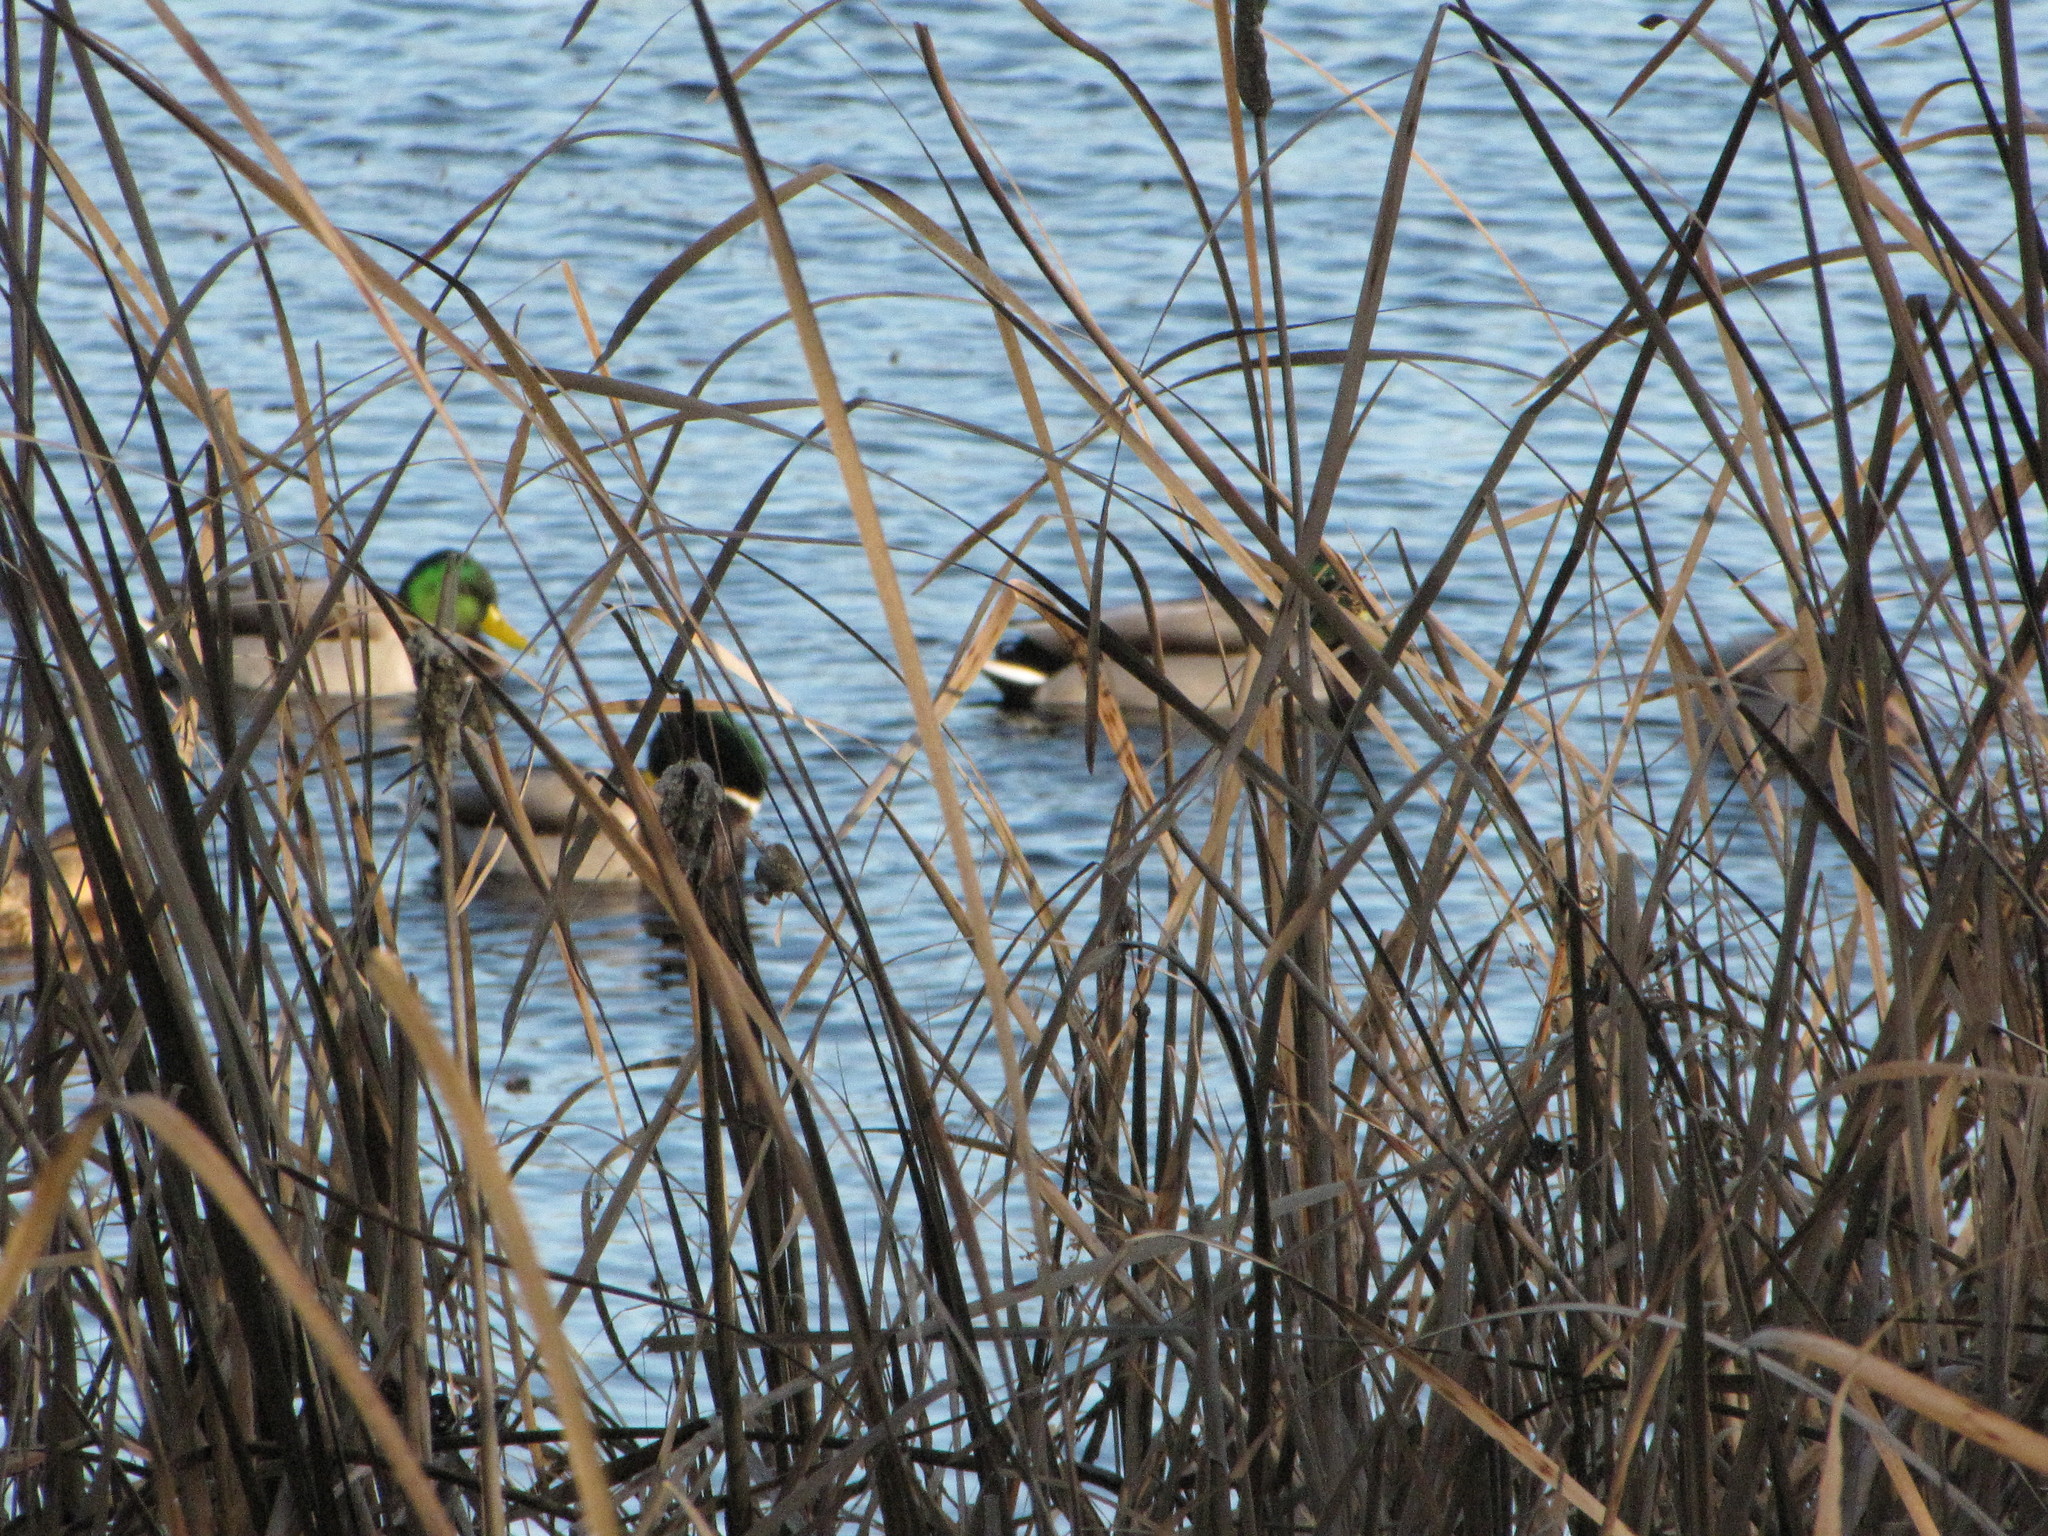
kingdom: Animalia
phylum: Chordata
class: Aves
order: Anseriformes
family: Anatidae
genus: Anas
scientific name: Anas platyrhynchos
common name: Mallard
